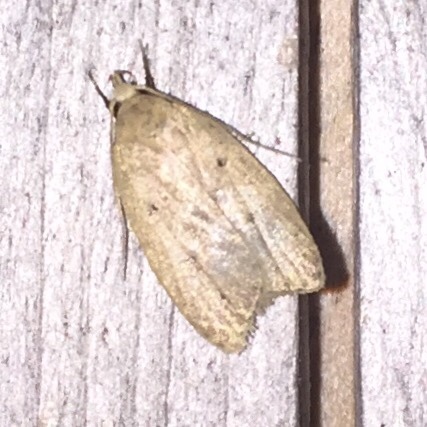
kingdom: Animalia
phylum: Arthropoda
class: Insecta
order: Lepidoptera
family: Peleopodidae
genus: Machimia
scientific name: Machimia tentoriferella
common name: Gold-striped leaftier moth
